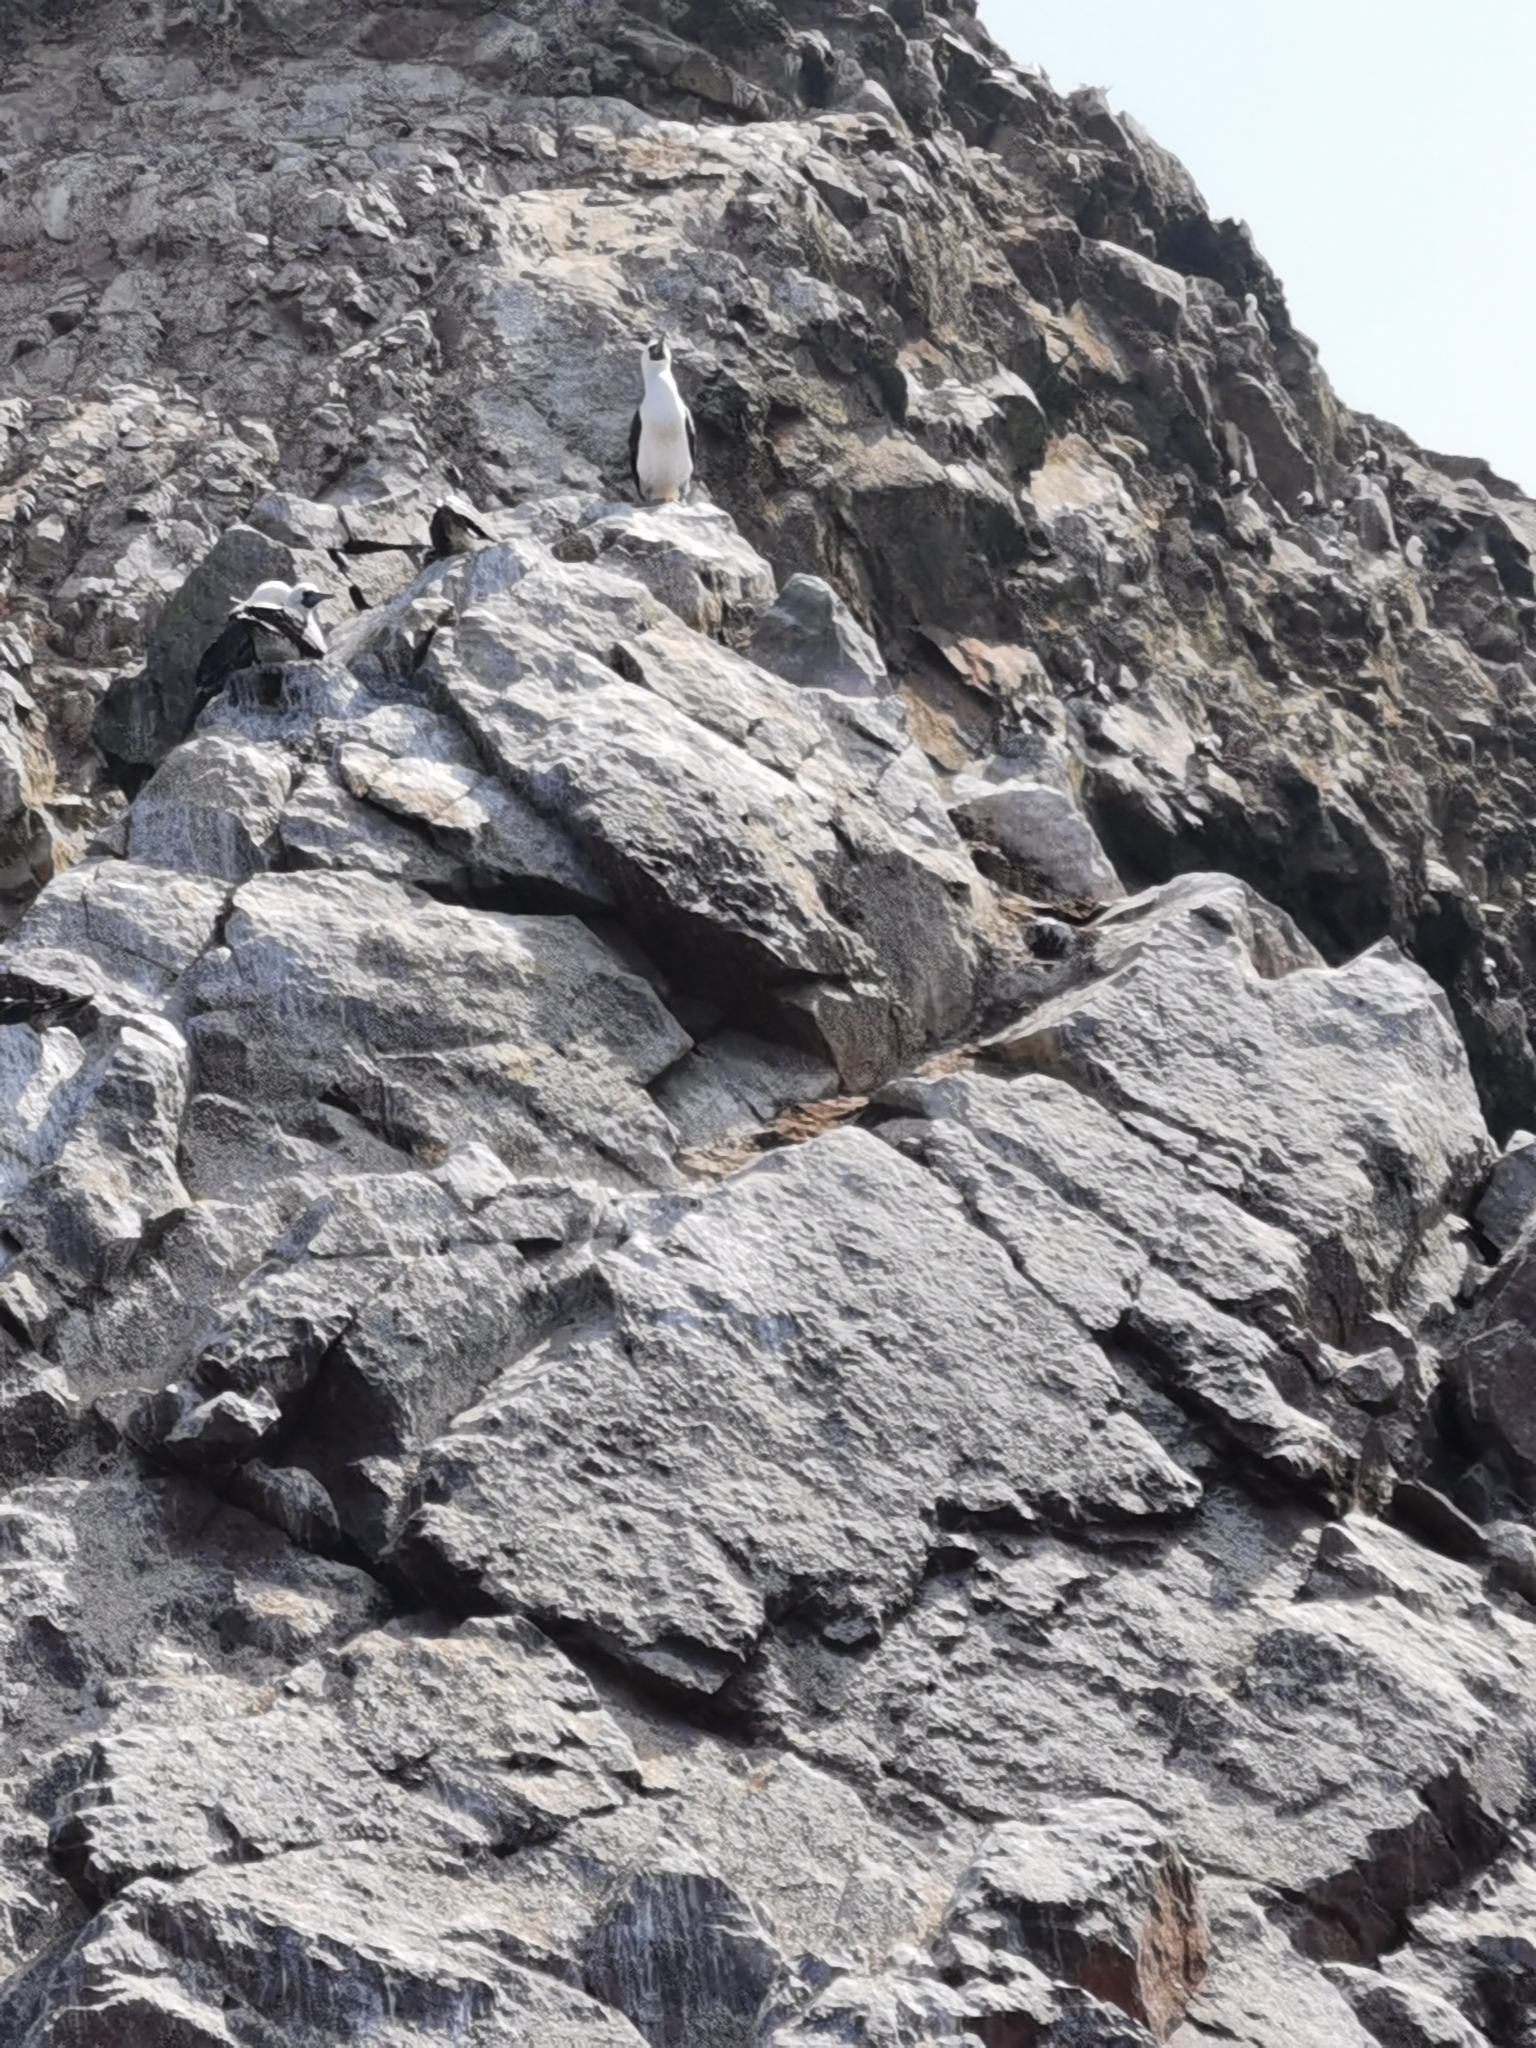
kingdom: Animalia
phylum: Chordata
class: Aves
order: Suliformes
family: Sulidae
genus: Sula
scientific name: Sula variegata
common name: Peruvian booby
